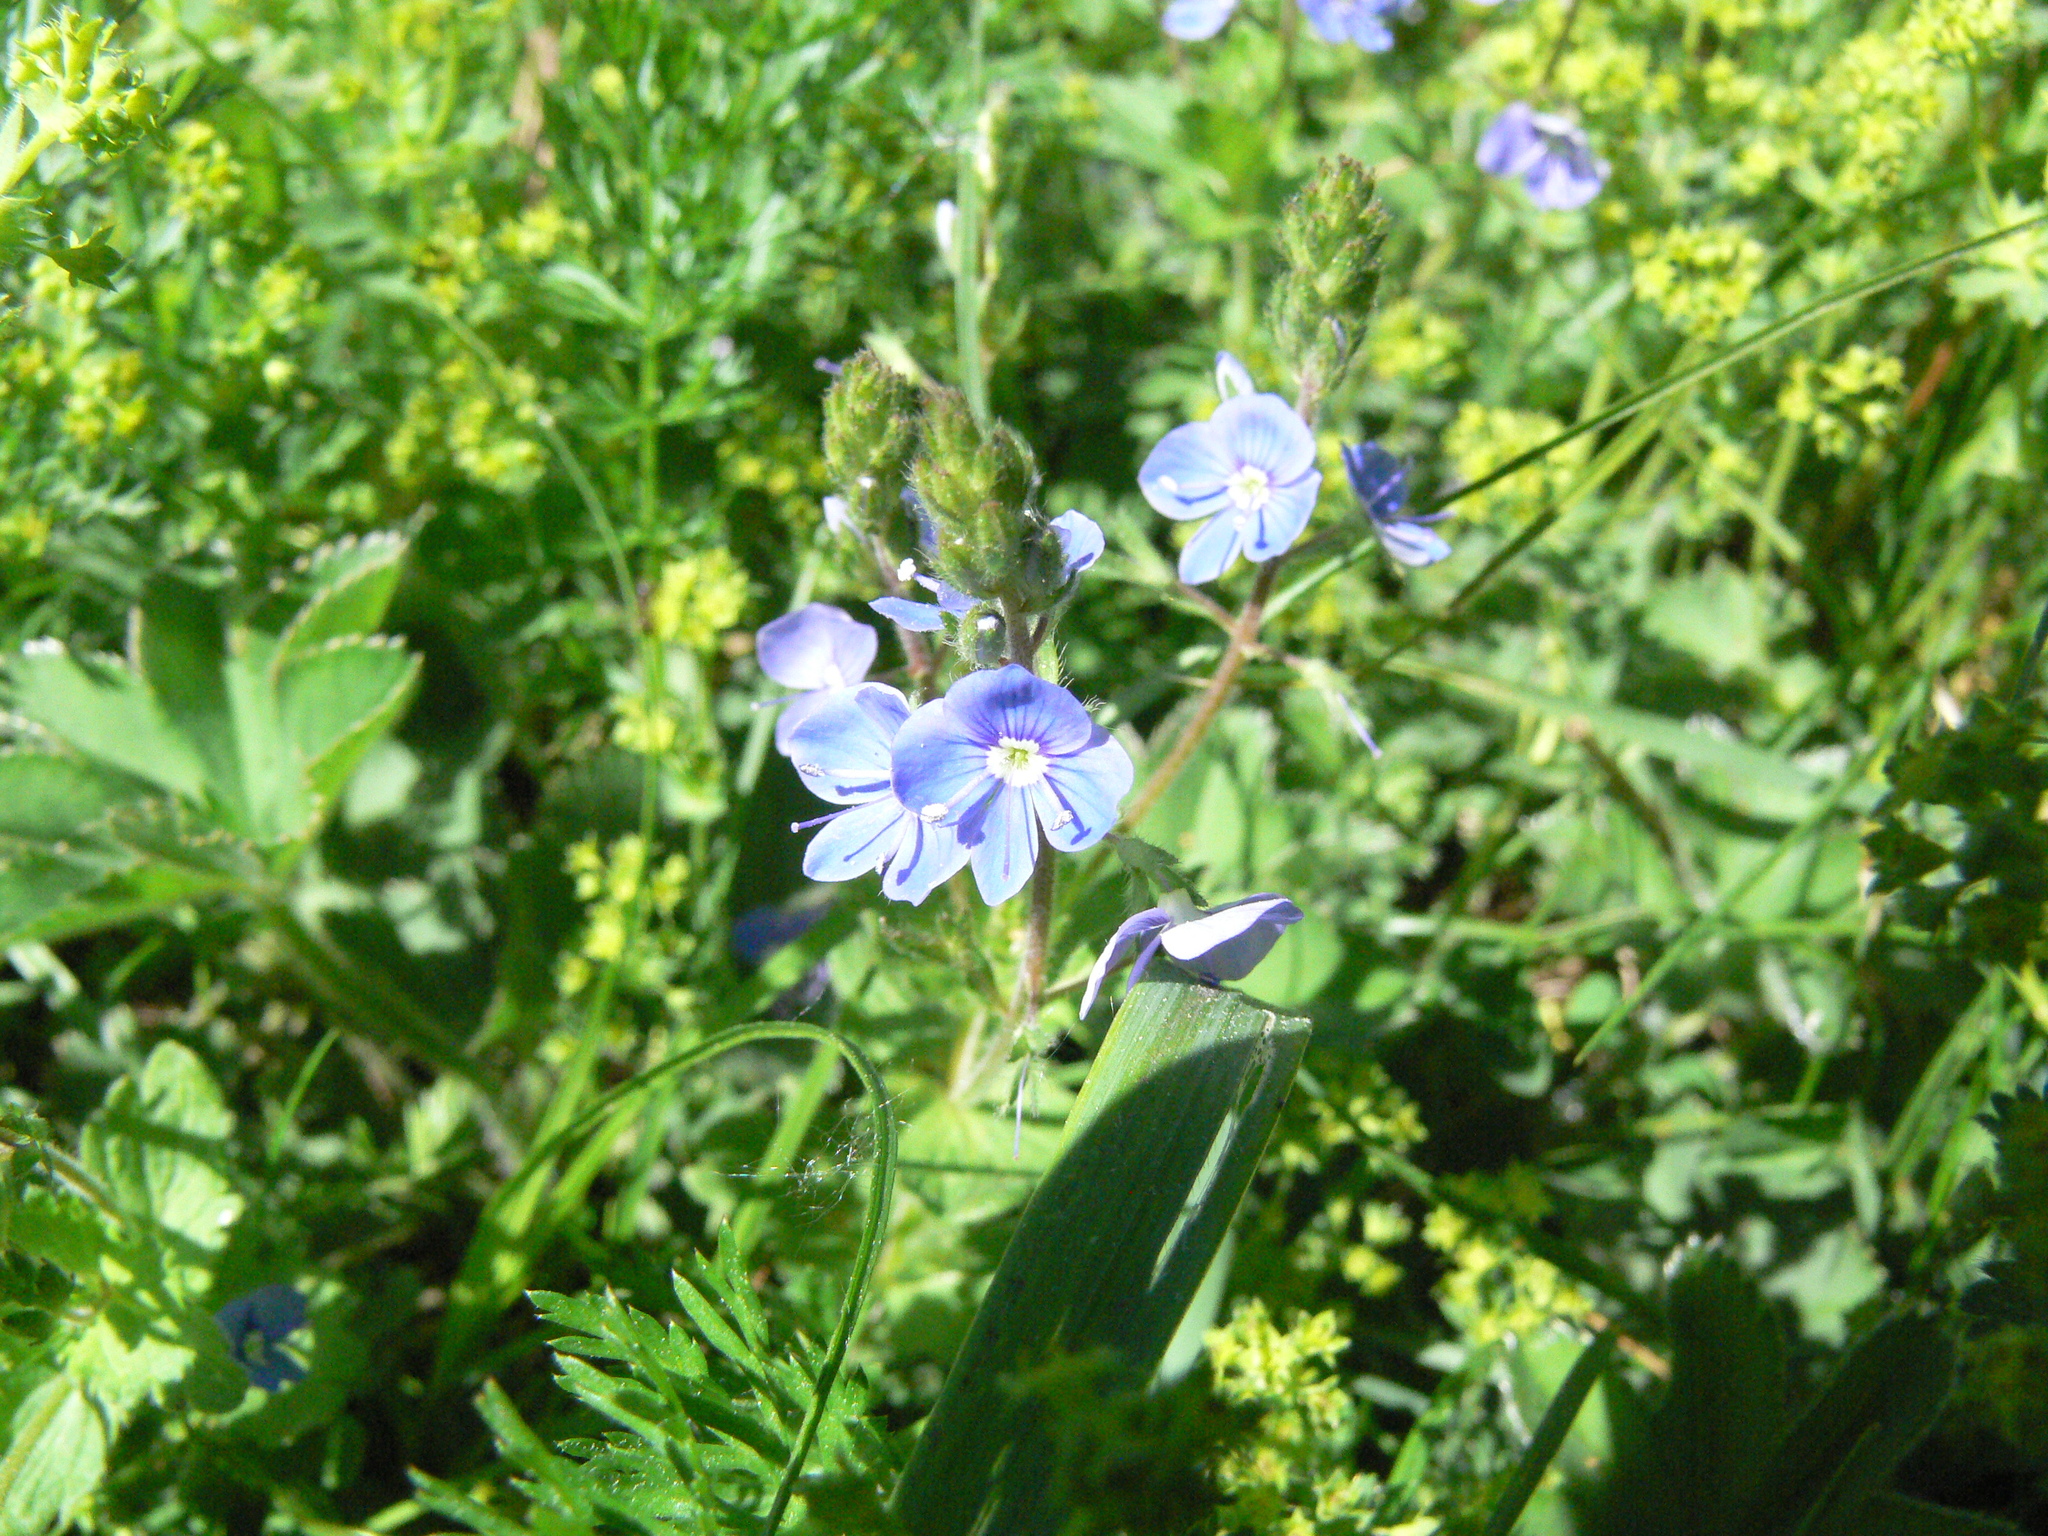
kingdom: Plantae
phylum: Tracheophyta
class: Magnoliopsida
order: Lamiales
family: Plantaginaceae
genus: Veronica
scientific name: Veronica chamaedrys
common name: Germander speedwell
